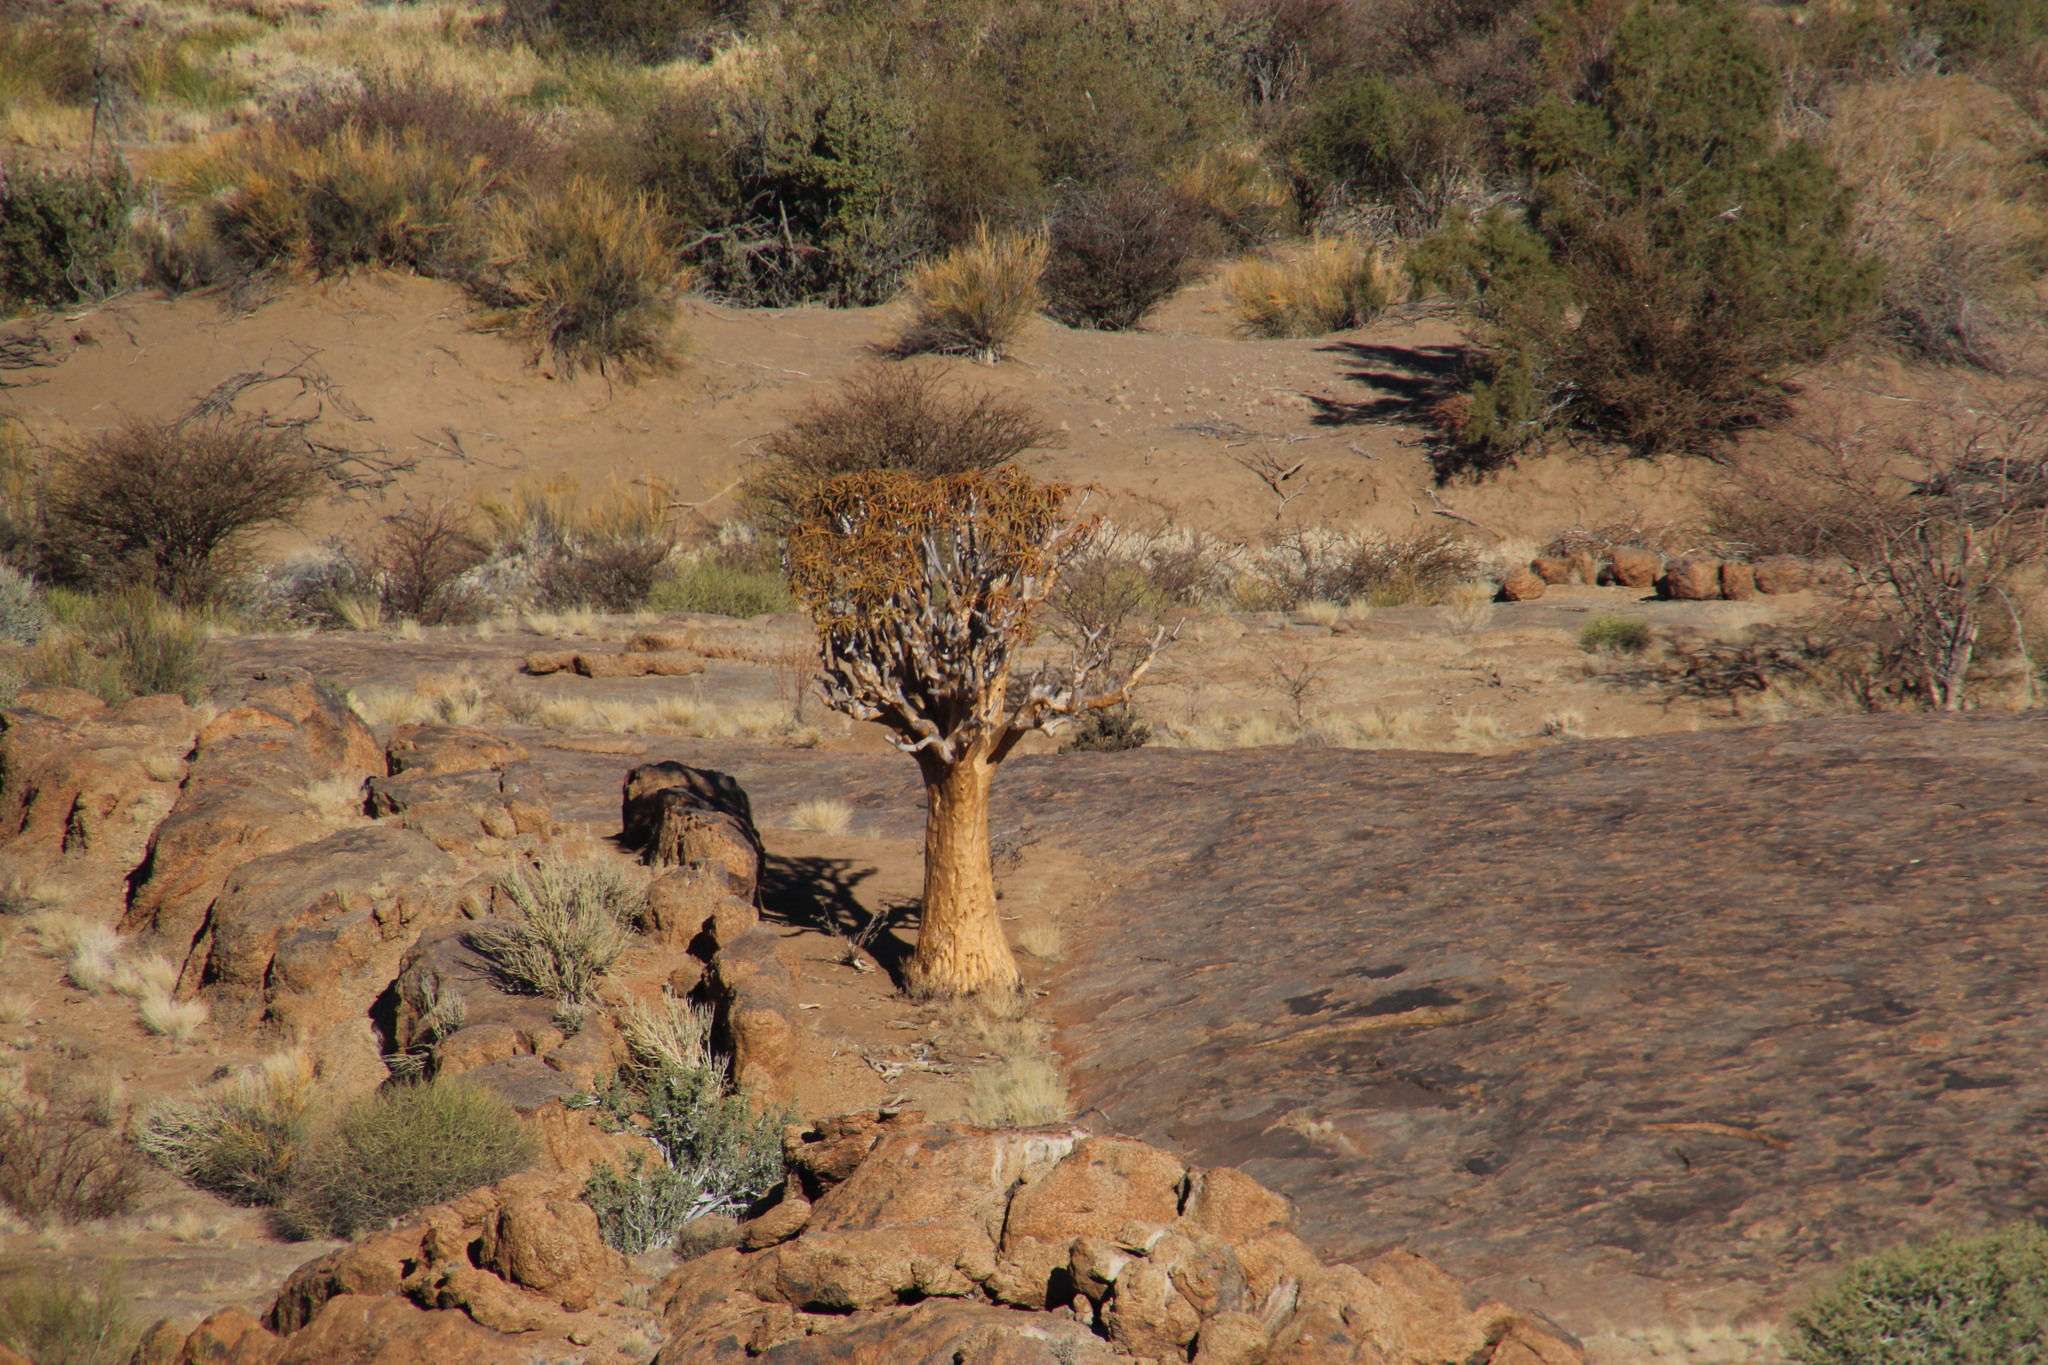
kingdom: Plantae
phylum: Tracheophyta
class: Liliopsida
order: Asparagales
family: Asphodelaceae
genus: Aloidendron
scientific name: Aloidendron dichotomum
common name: Quiver tree
